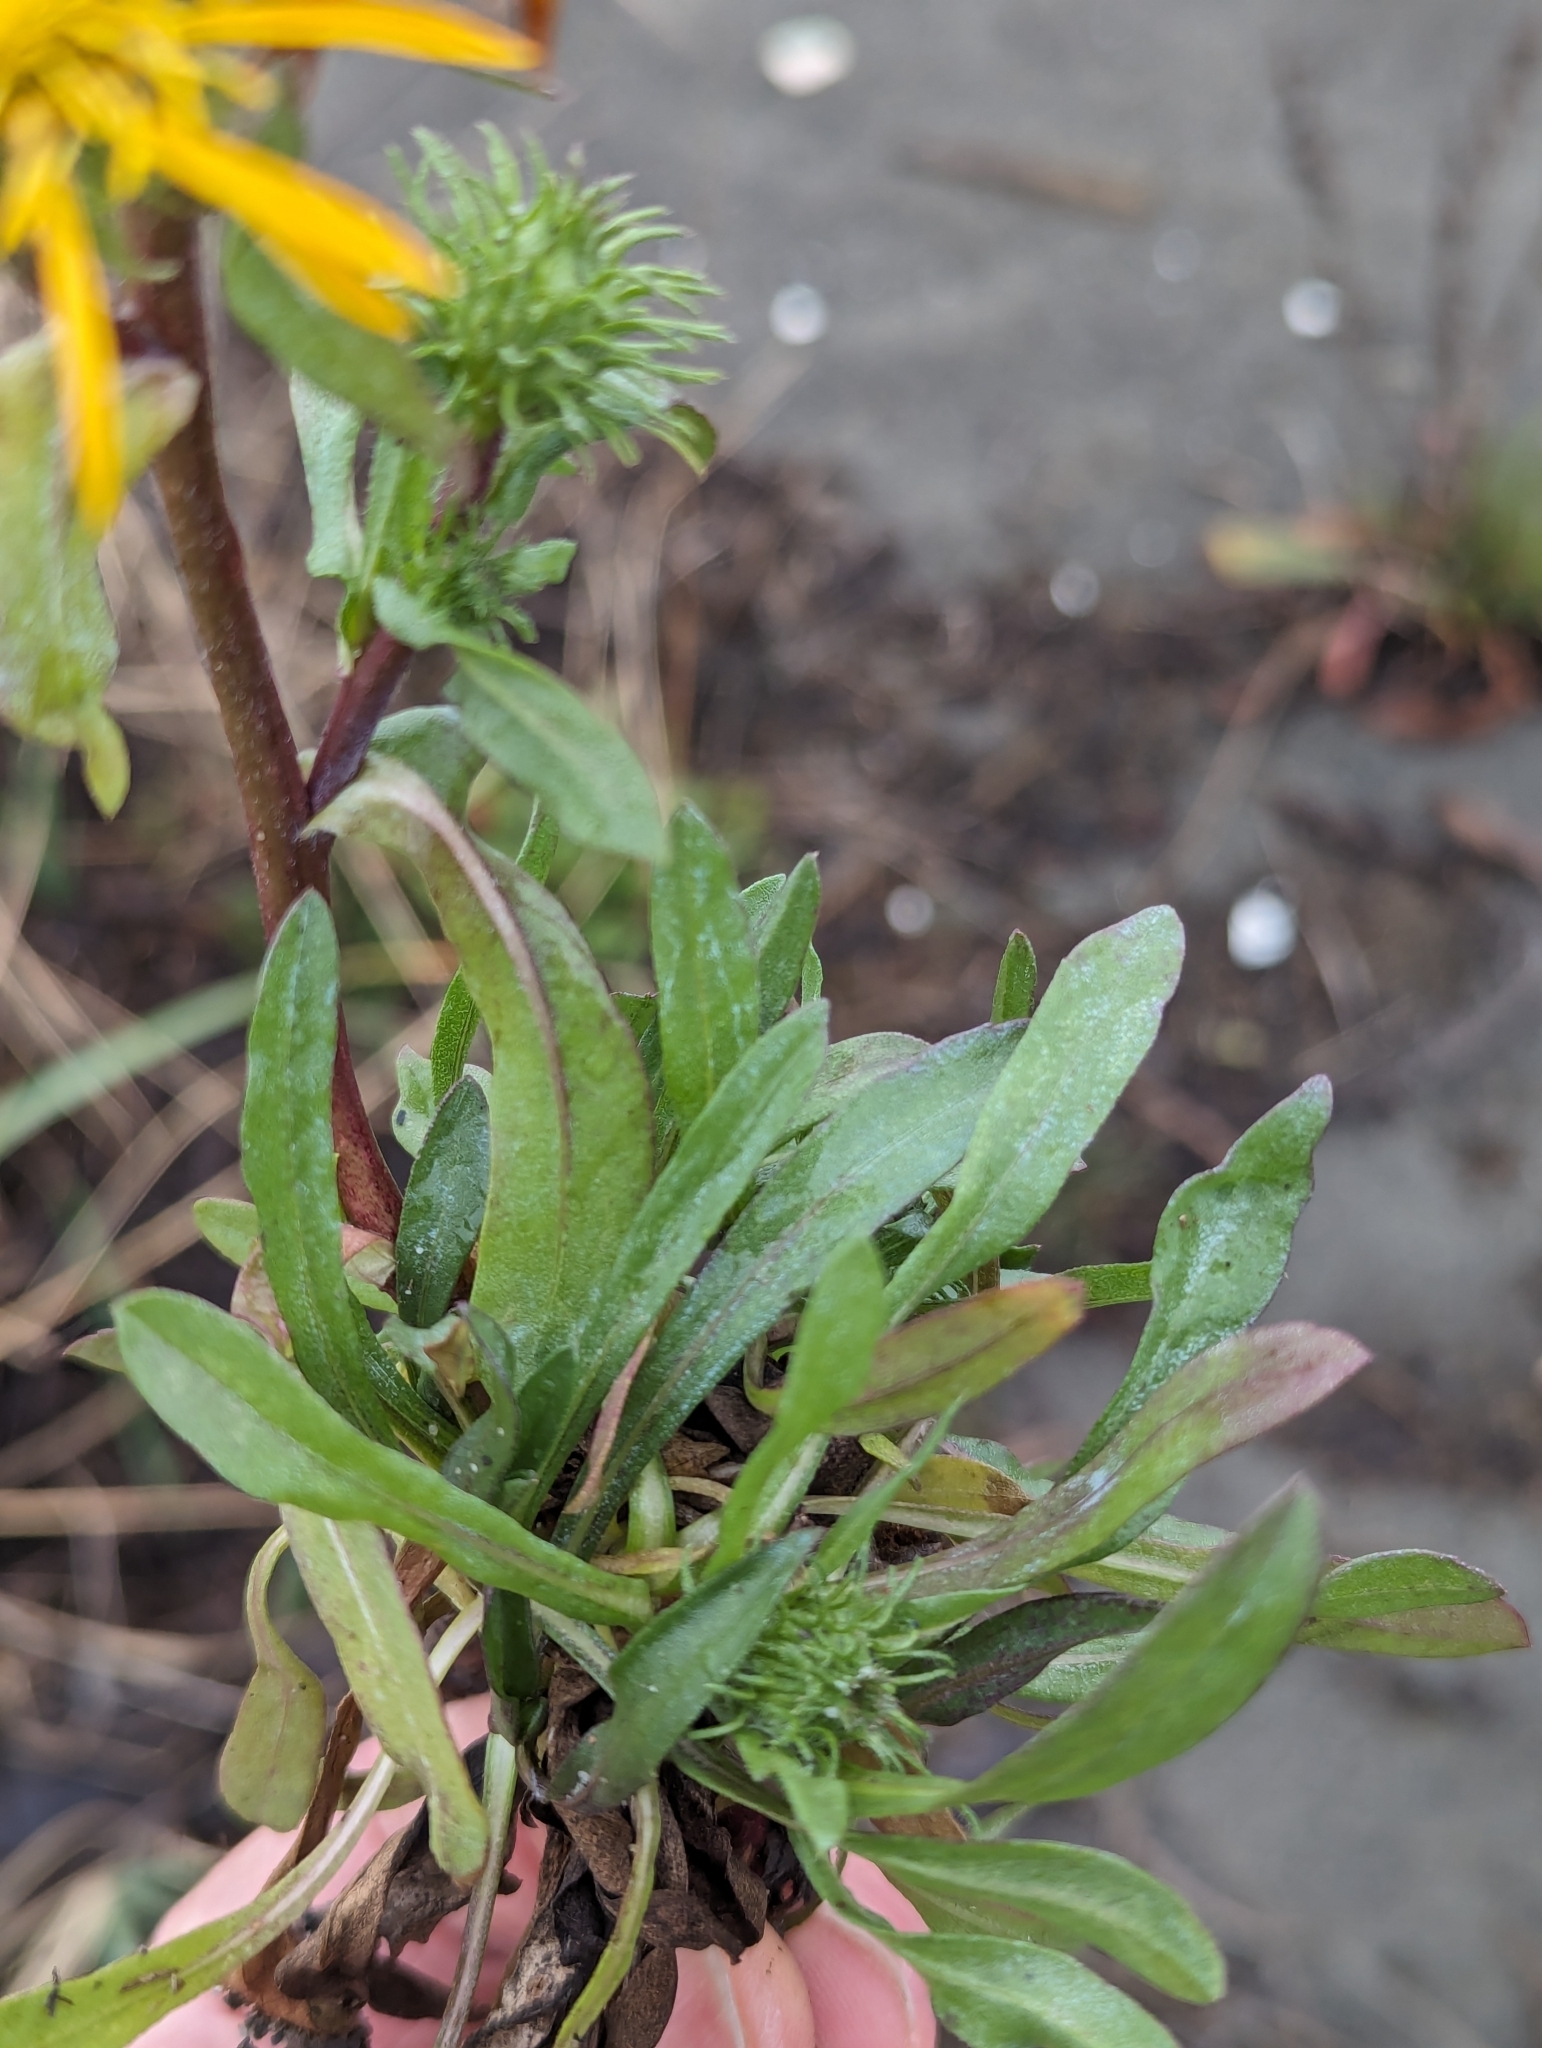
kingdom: Plantae
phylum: Tracheophyta
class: Magnoliopsida
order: Asterales
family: Asteraceae
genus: Grindelia
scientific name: Grindelia integrifolia
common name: Puget sound gumweed
